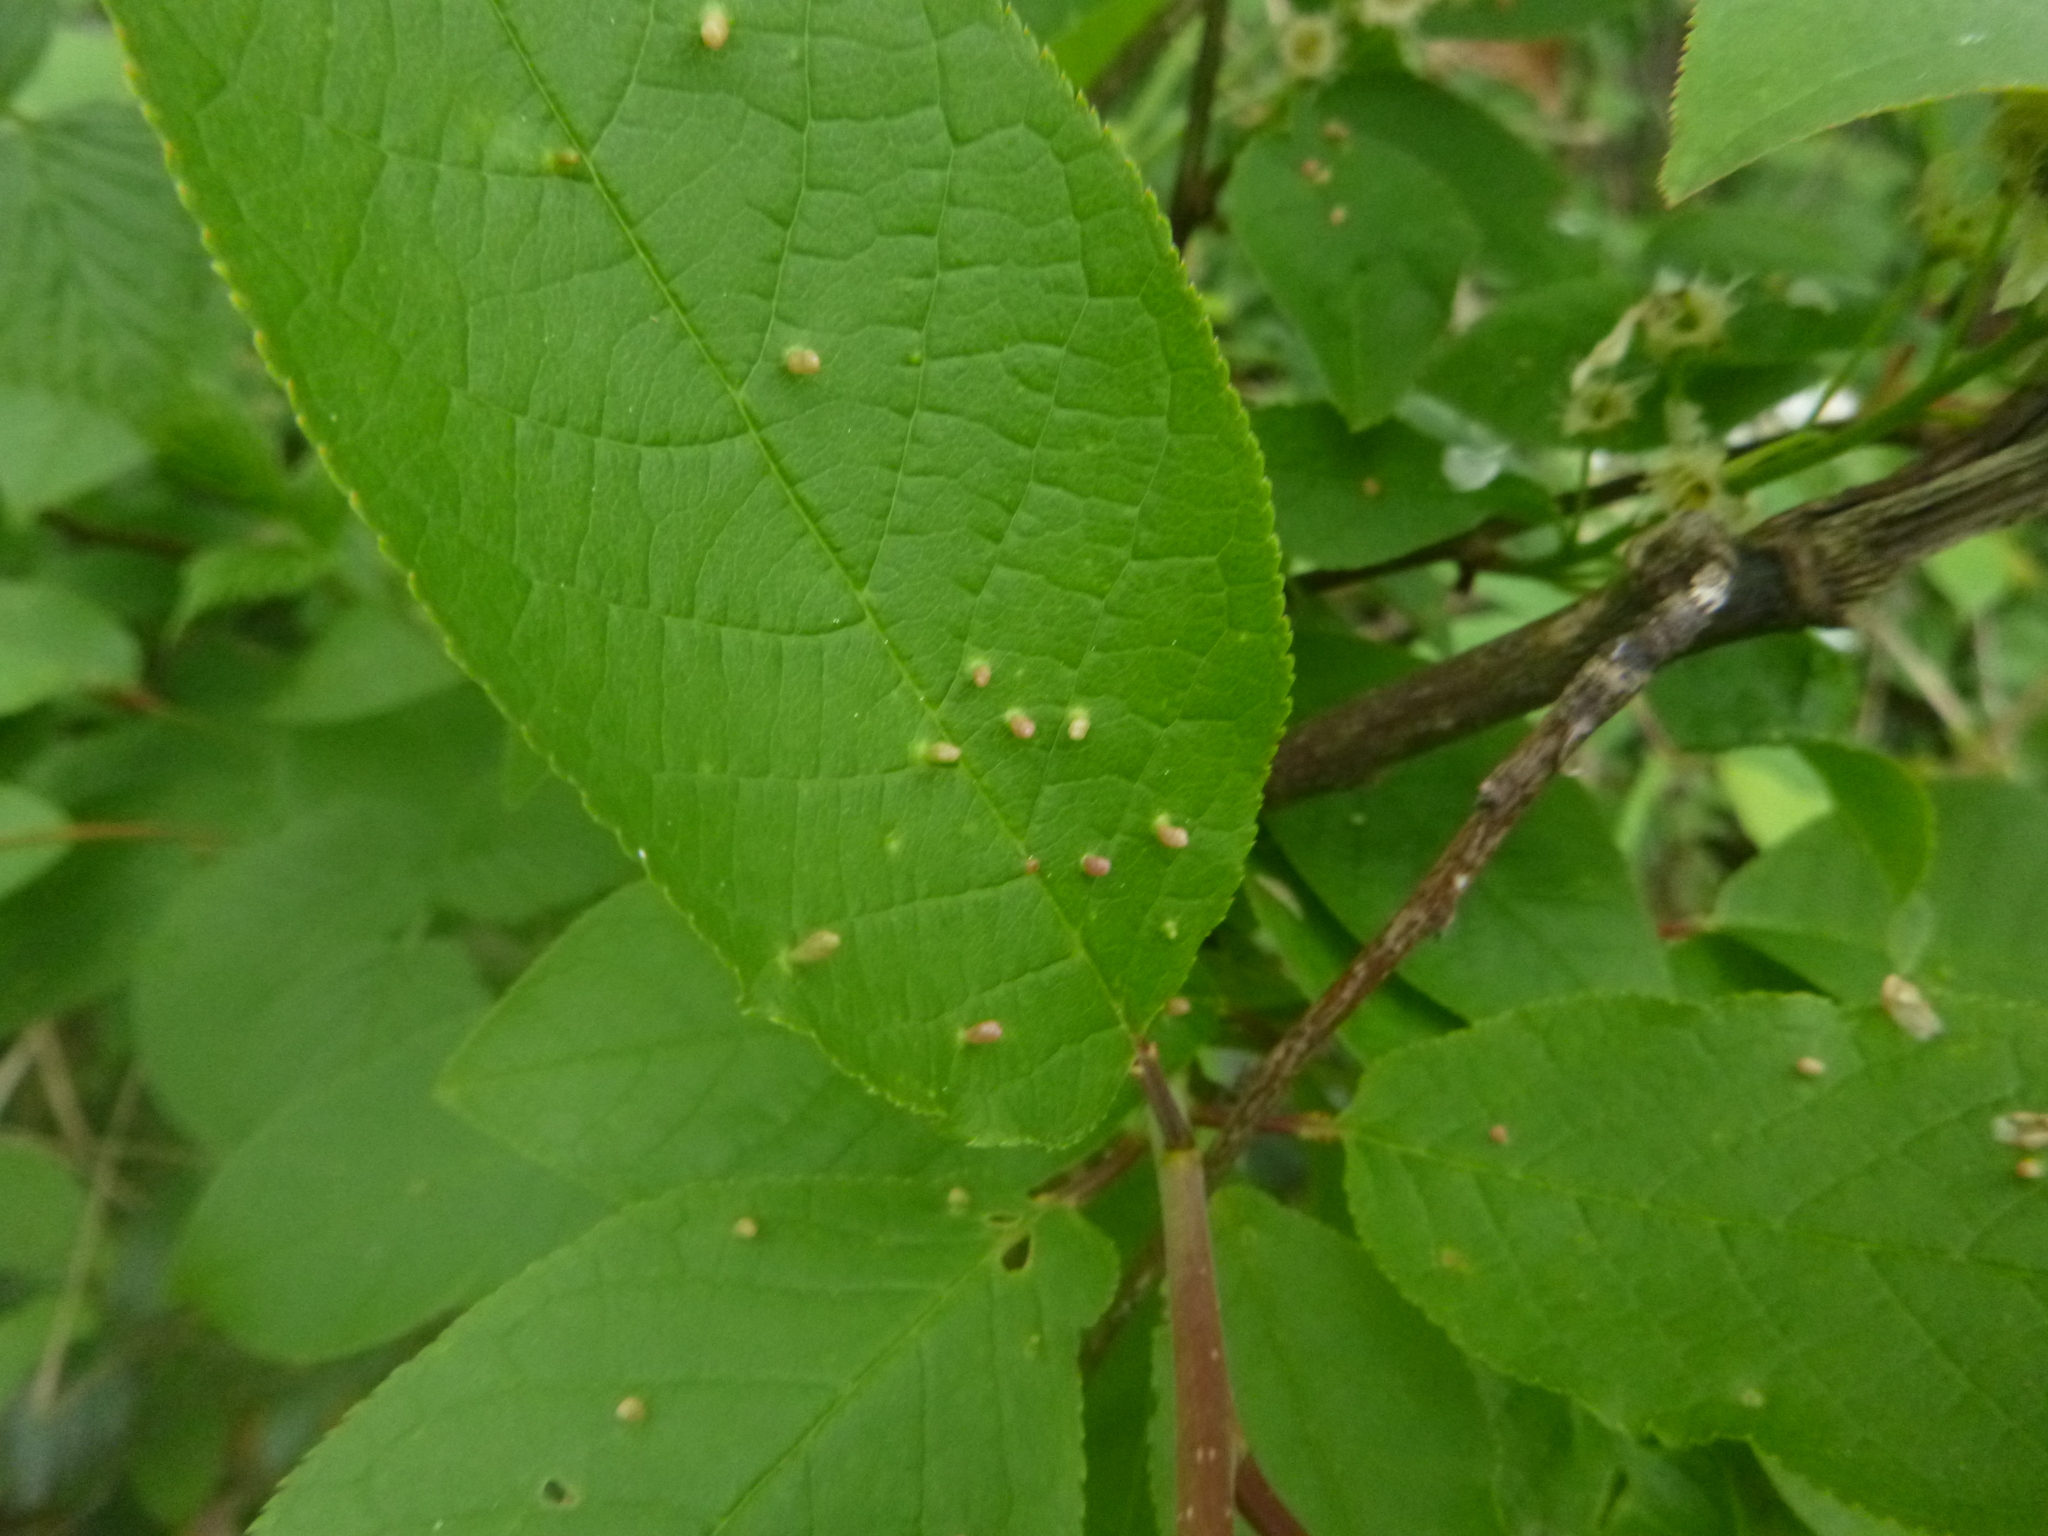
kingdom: Animalia
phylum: Arthropoda
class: Arachnida
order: Trombidiformes
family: Eriophyidae
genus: Phyllocoptes
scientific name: Phyllocoptes eupadi
